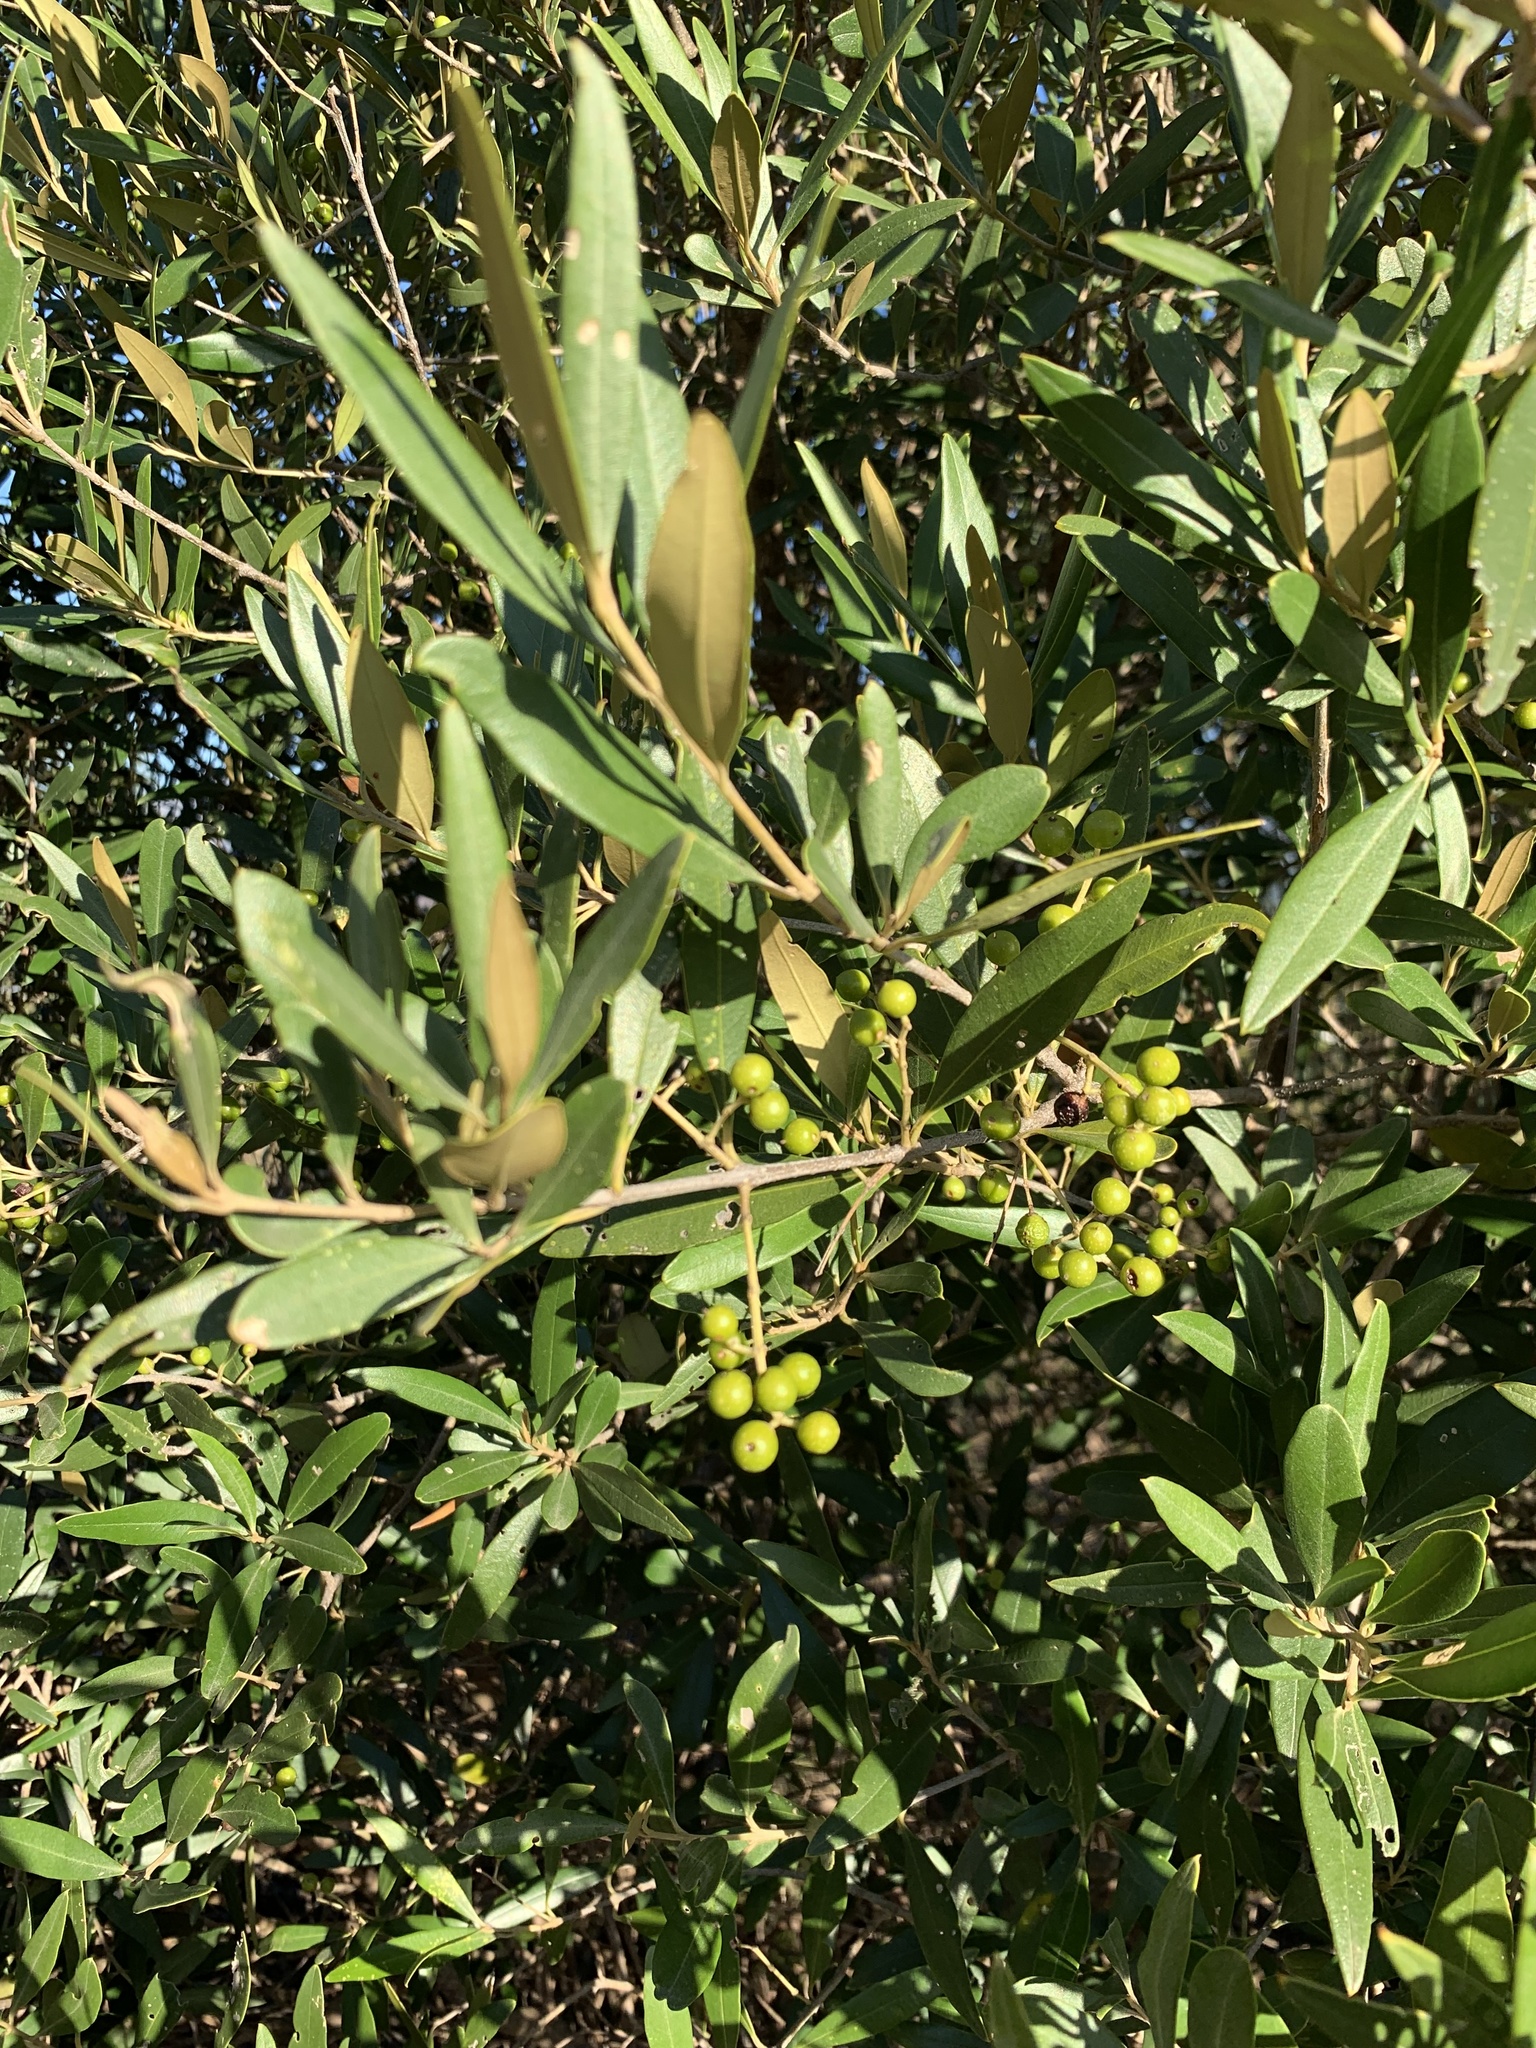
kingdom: Plantae
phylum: Tracheophyta
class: Magnoliopsida
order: Lamiales
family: Oleaceae
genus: Olea
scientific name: Olea europaea
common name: Olive
